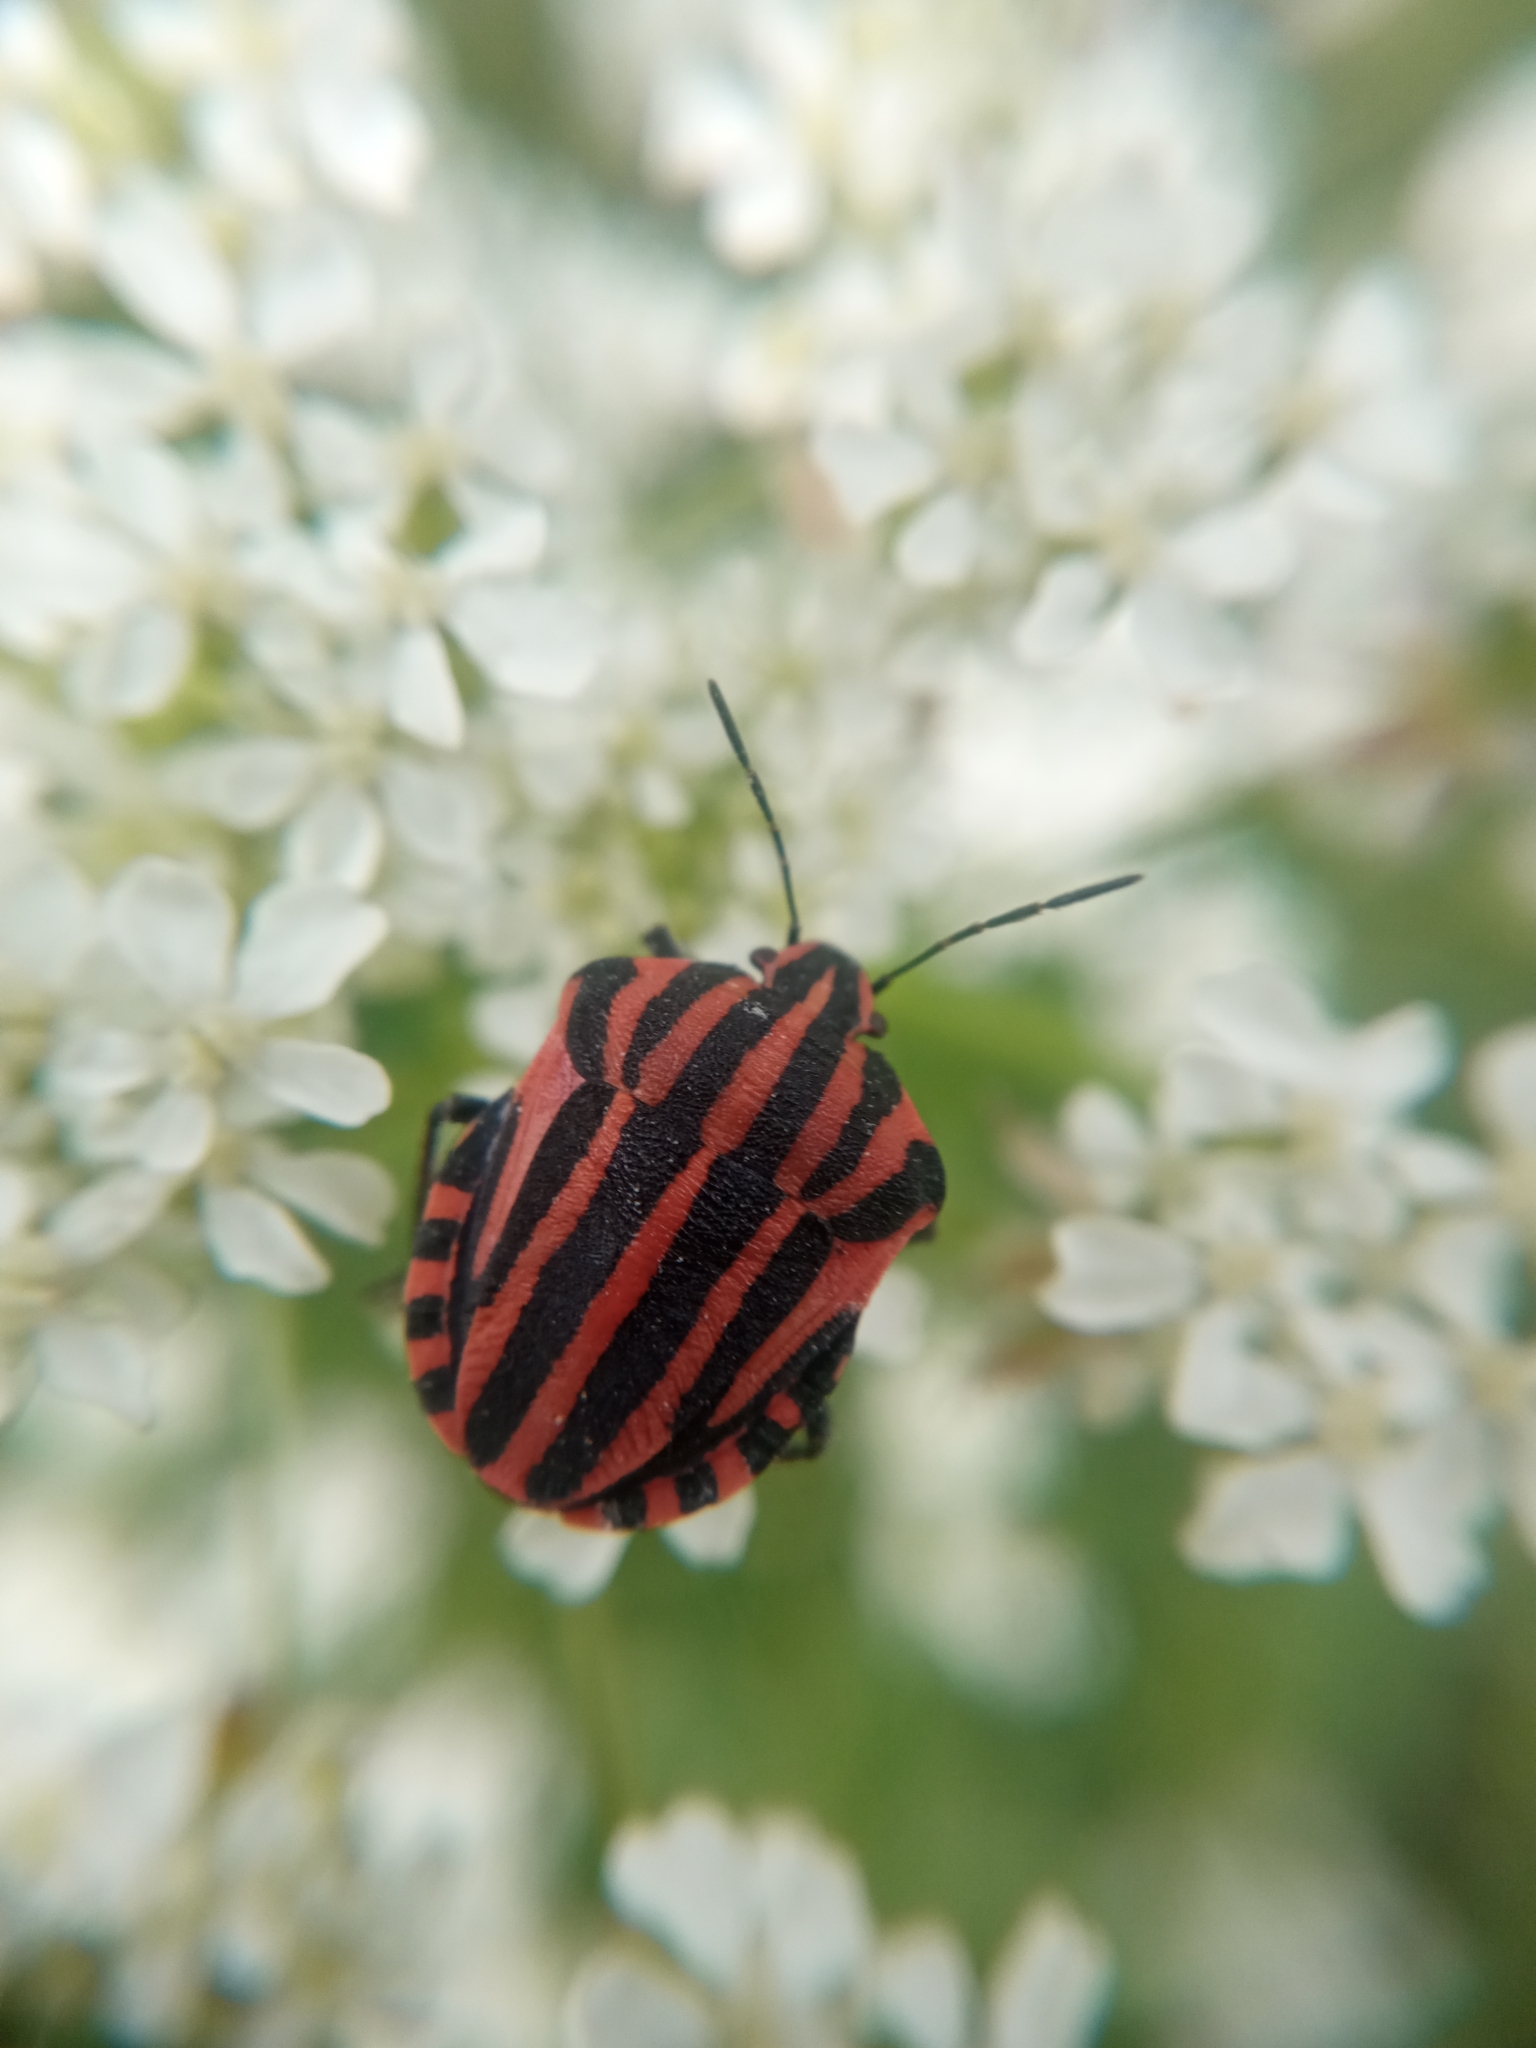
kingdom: Animalia
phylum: Arthropoda
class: Insecta
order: Hemiptera
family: Pentatomidae
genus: Graphosoma
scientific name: Graphosoma italicum
